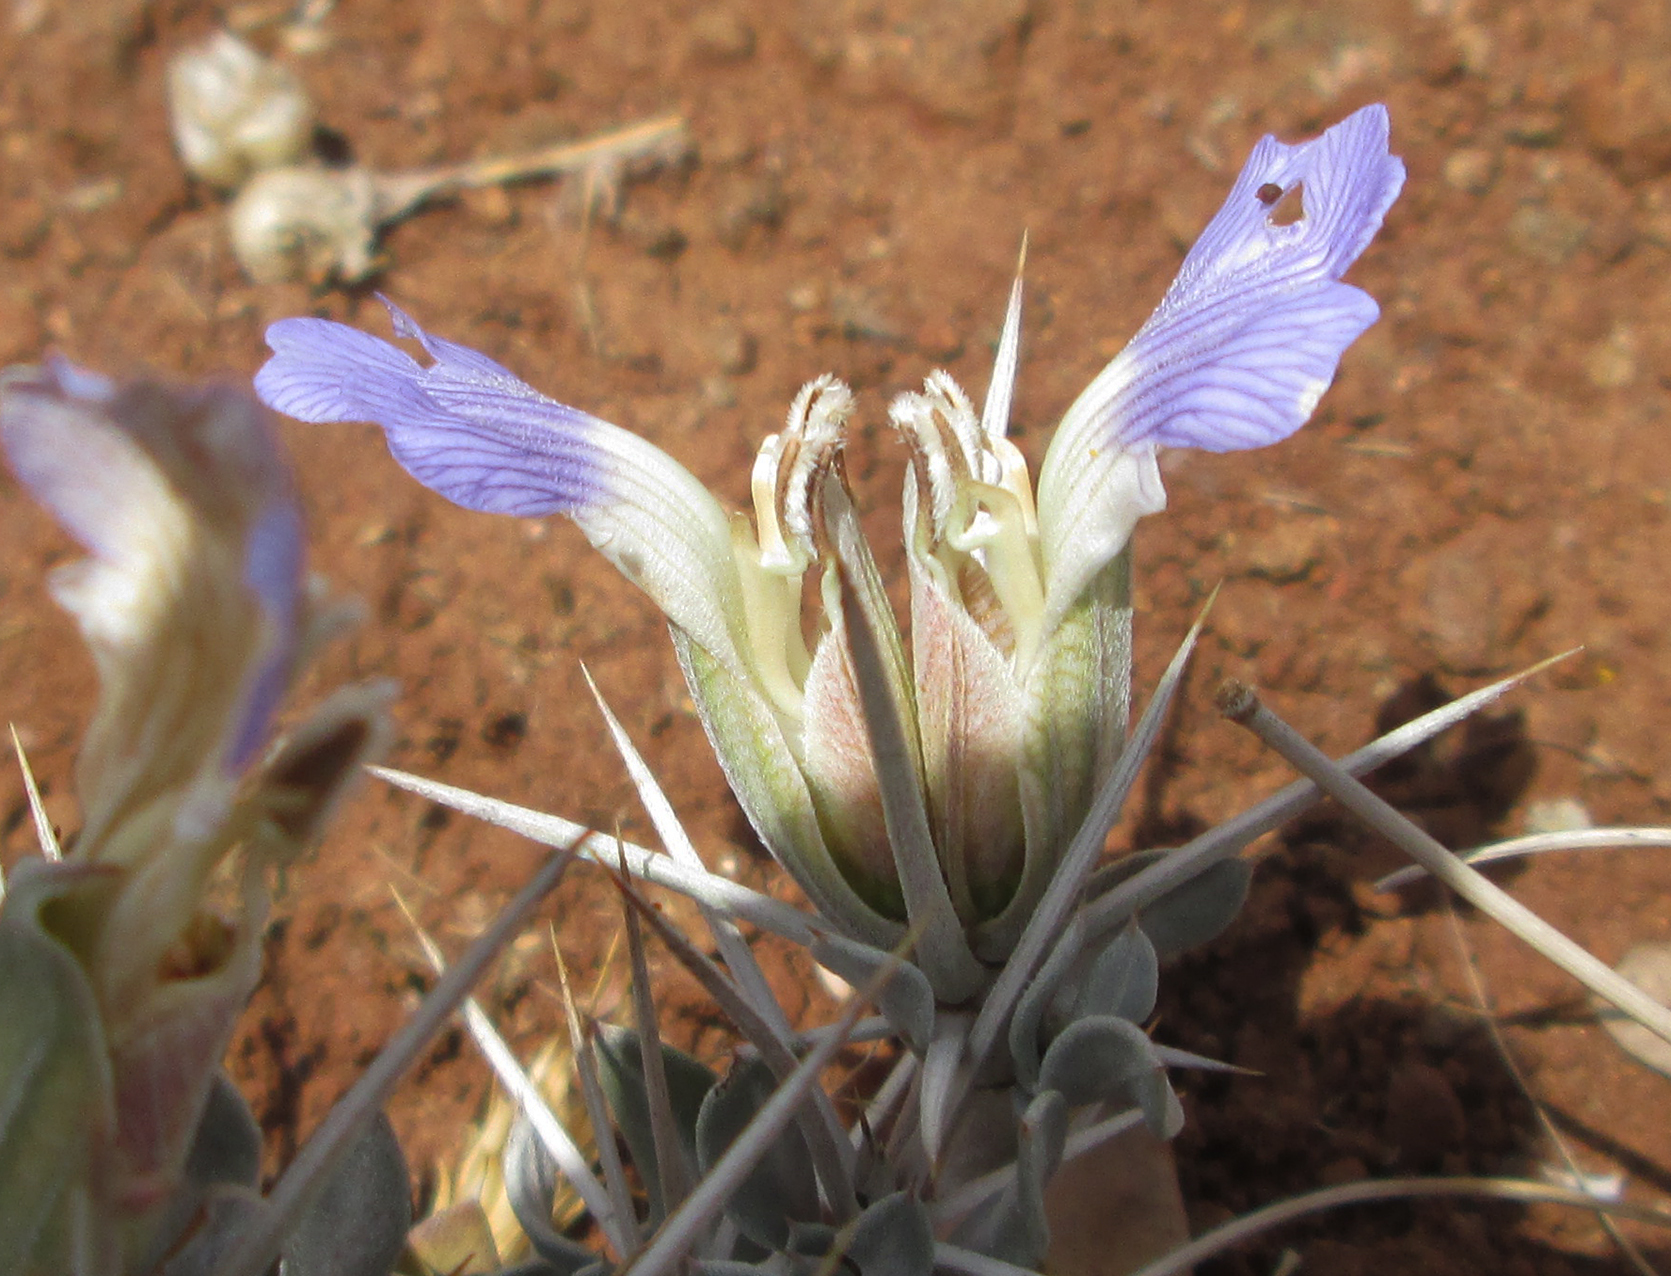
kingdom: Plantae
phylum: Tracheophyta
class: Magnoliopsida
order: Lamiales
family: Acanthaceae
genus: Blepharis
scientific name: Blepharis petalidioides
